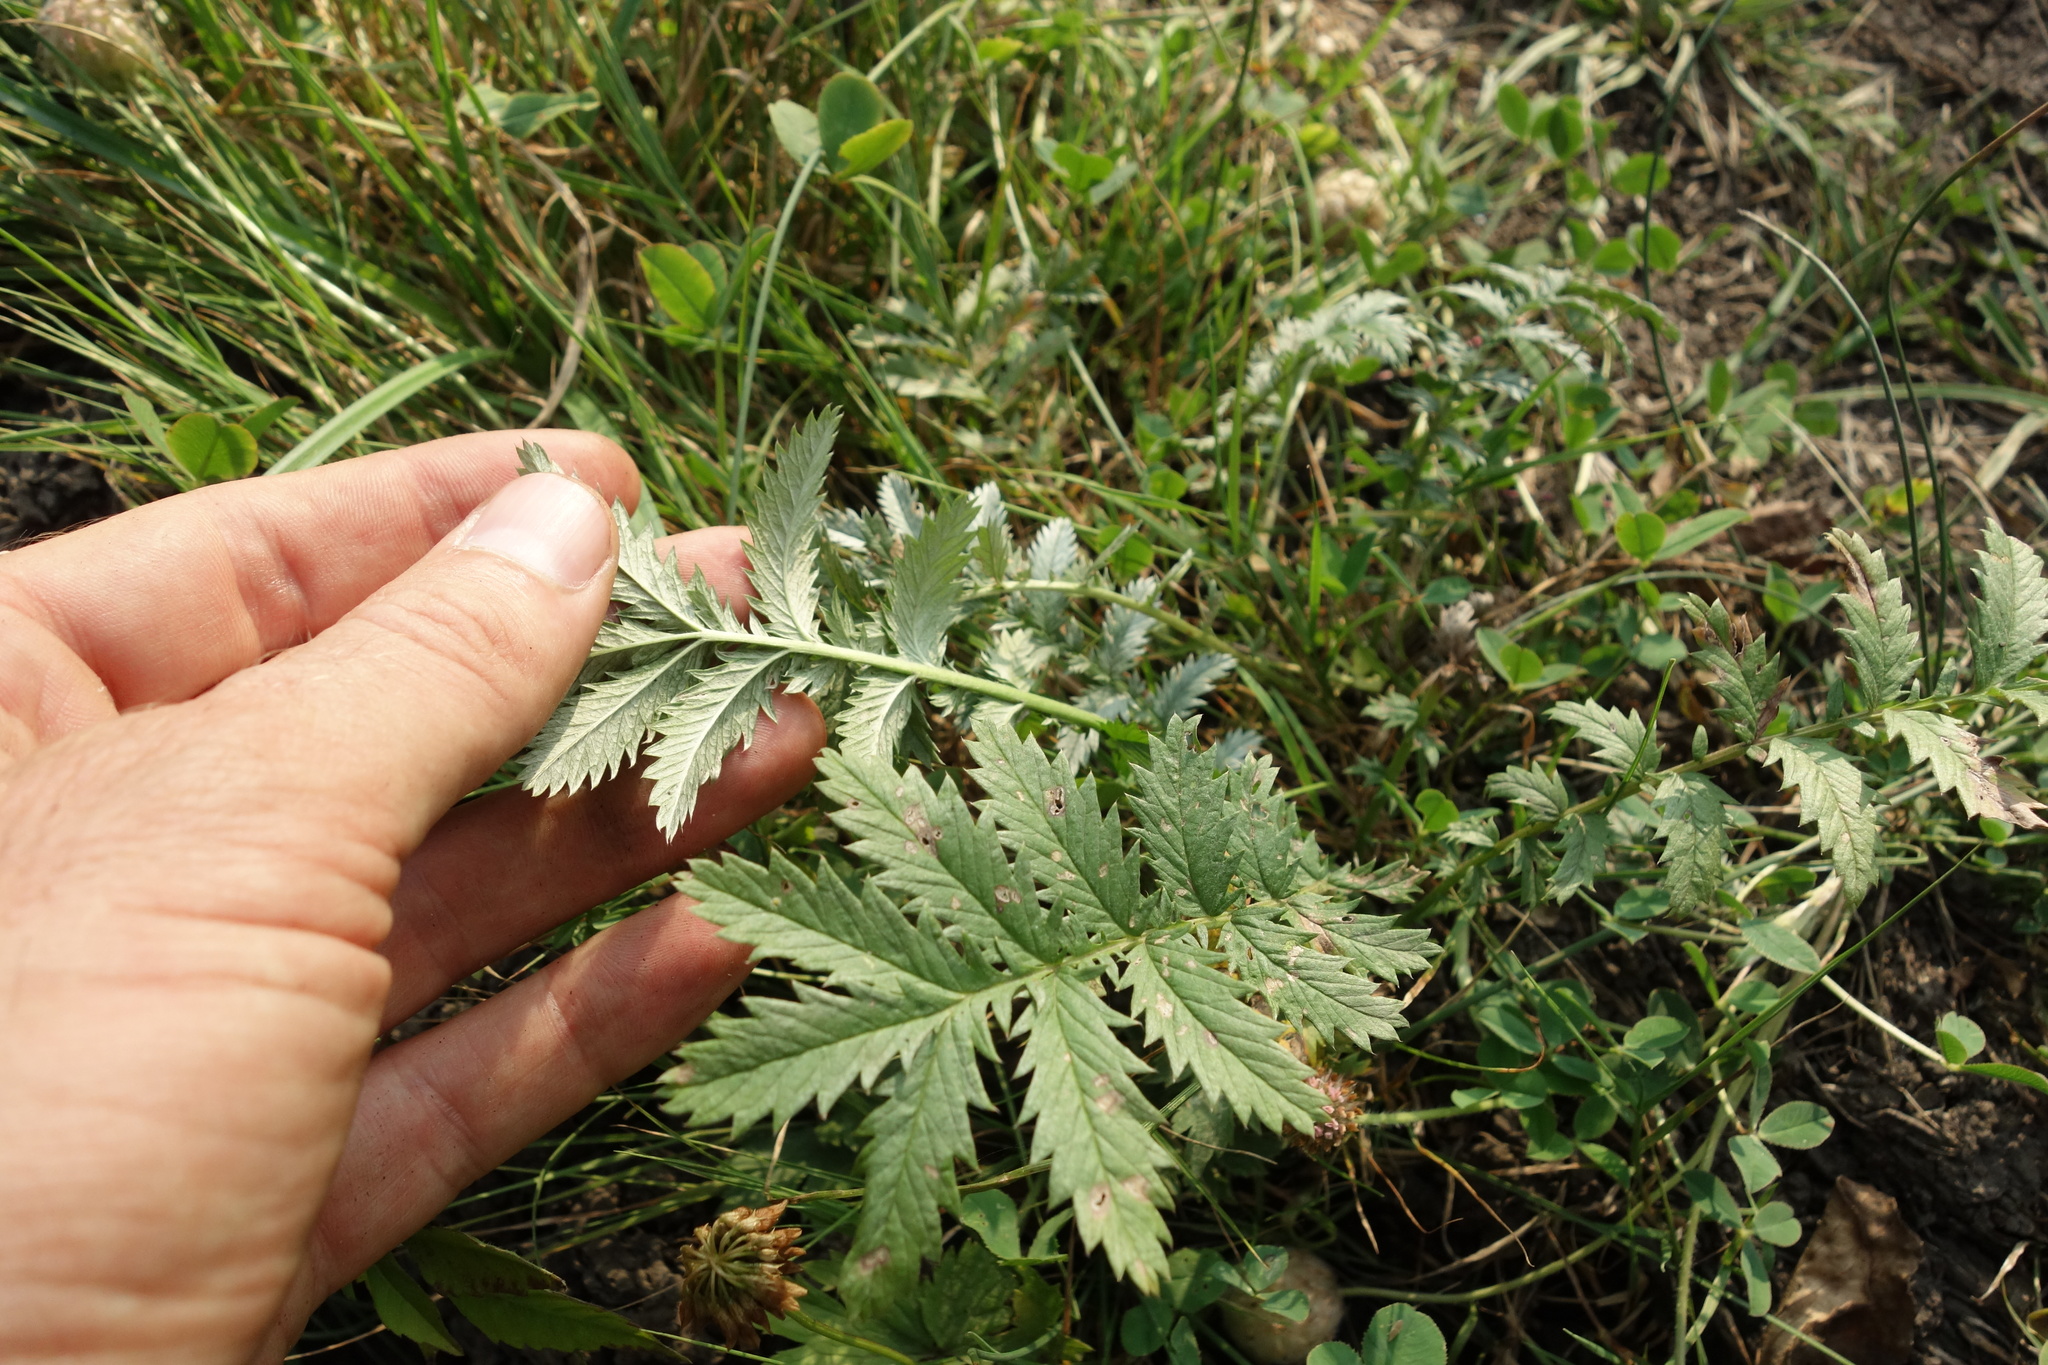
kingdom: Plantae
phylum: Tracheophyta
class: Magnoliopsida
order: Rosales
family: Rosaceae
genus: Argentina
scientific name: Argentina anserina
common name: Common silverweed
